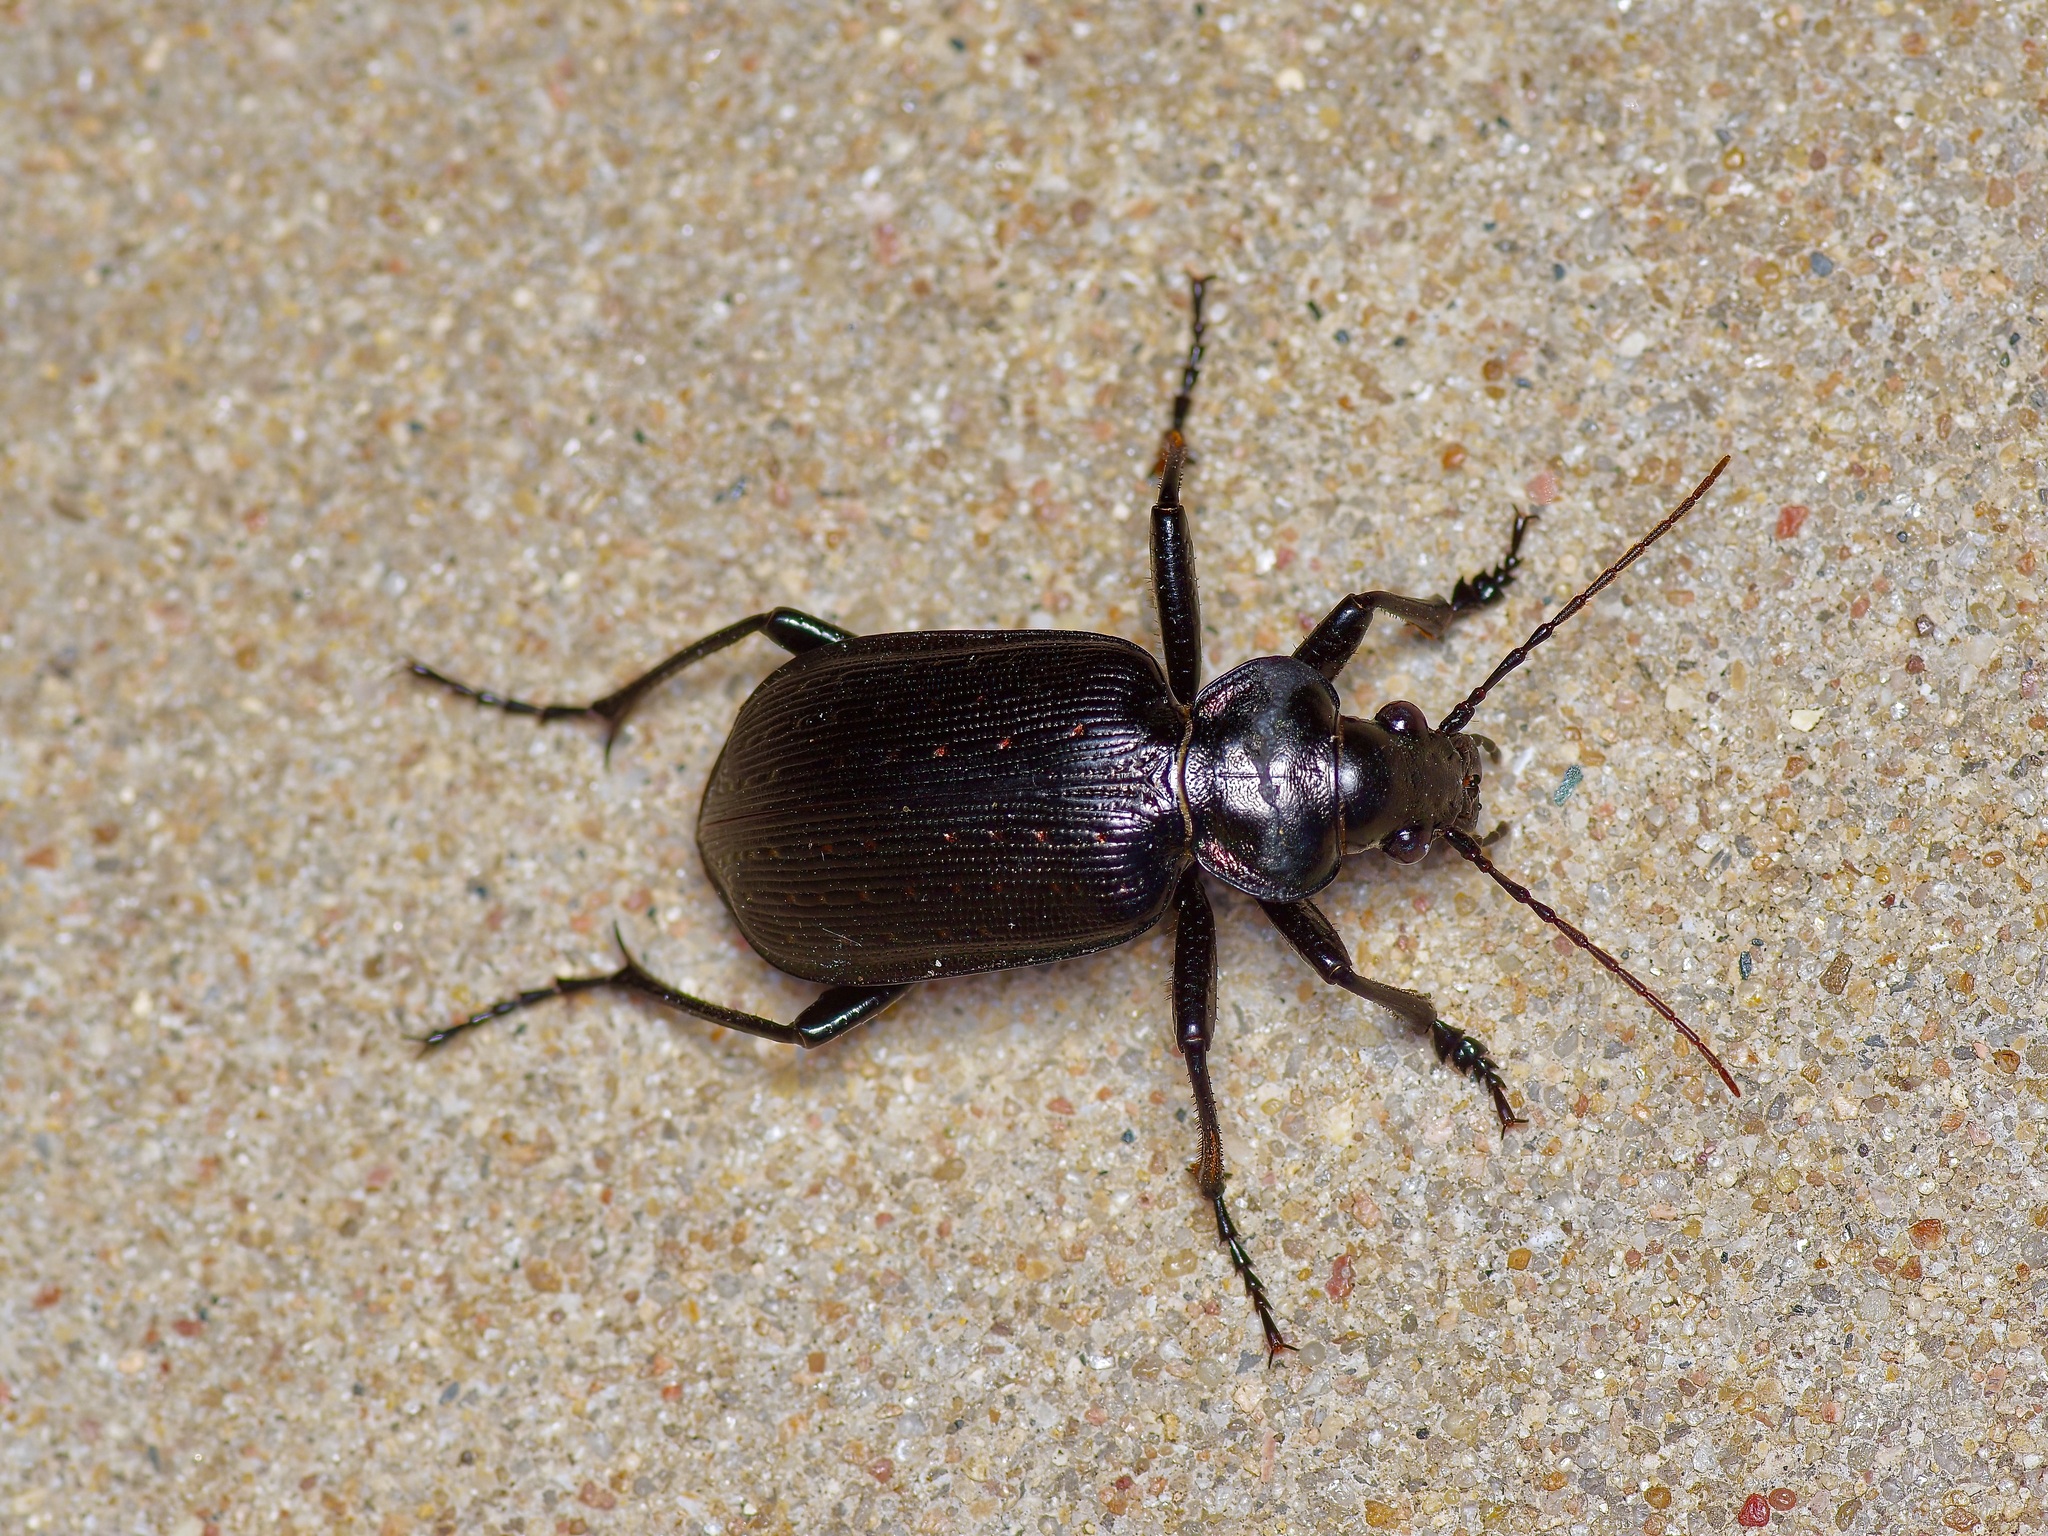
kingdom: Animalia
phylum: Arthropoda
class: Insecta
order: Coleoptera
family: Carabidae
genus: Calosoma
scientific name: Calosoma sayi
